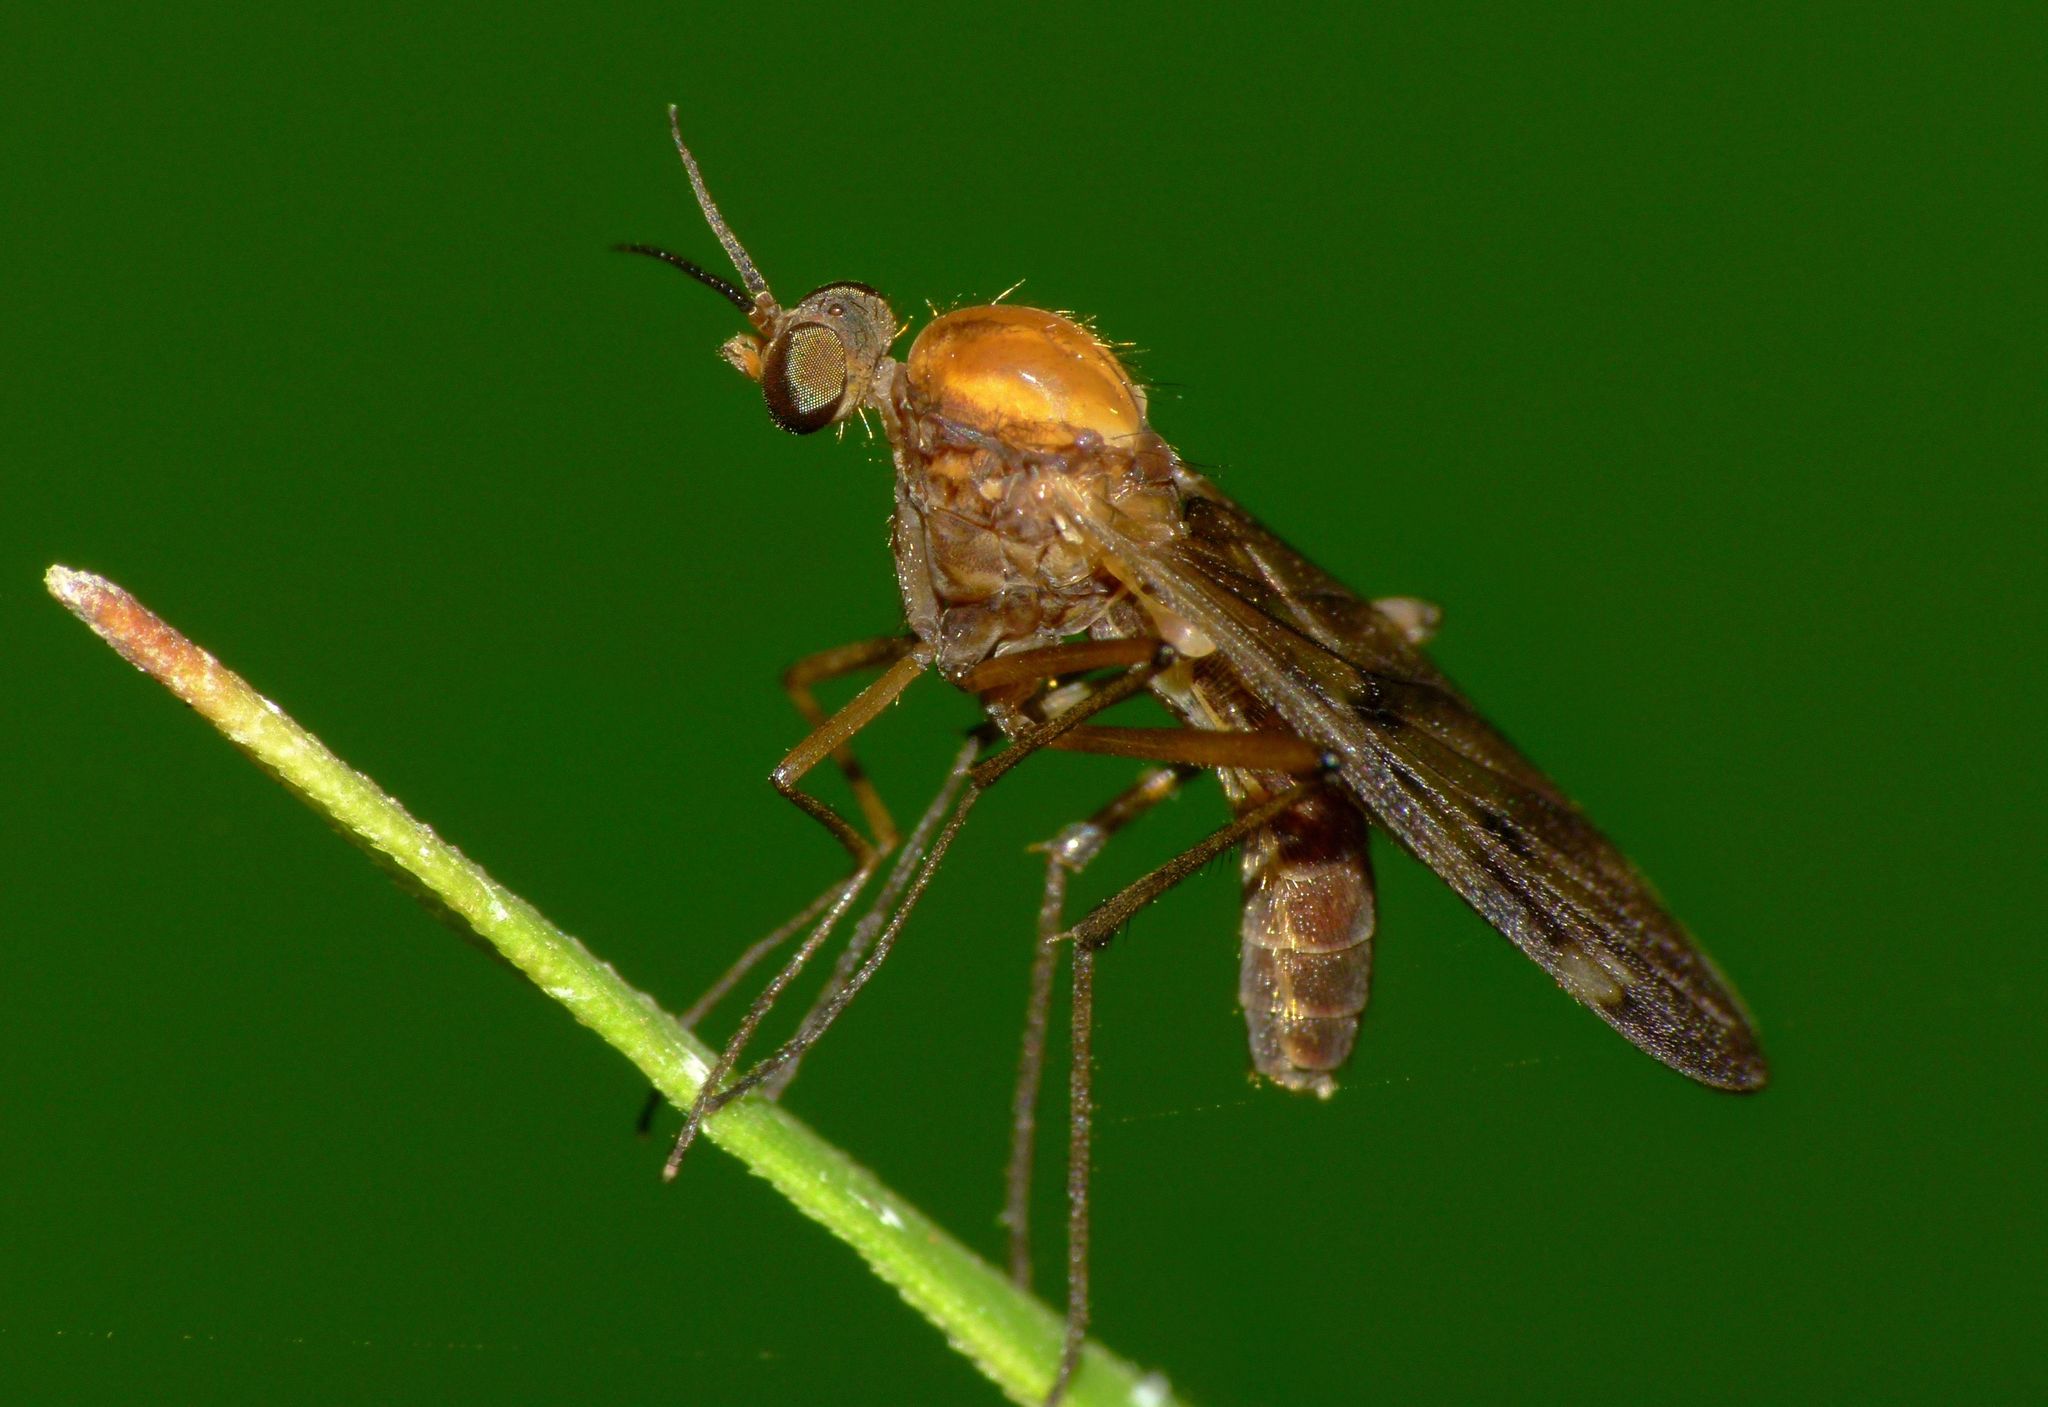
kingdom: Animalia
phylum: Arthropoda
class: Insecta
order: Diptera
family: Anisopodidae
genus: Sylvicola
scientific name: Sylvicola undulatus
